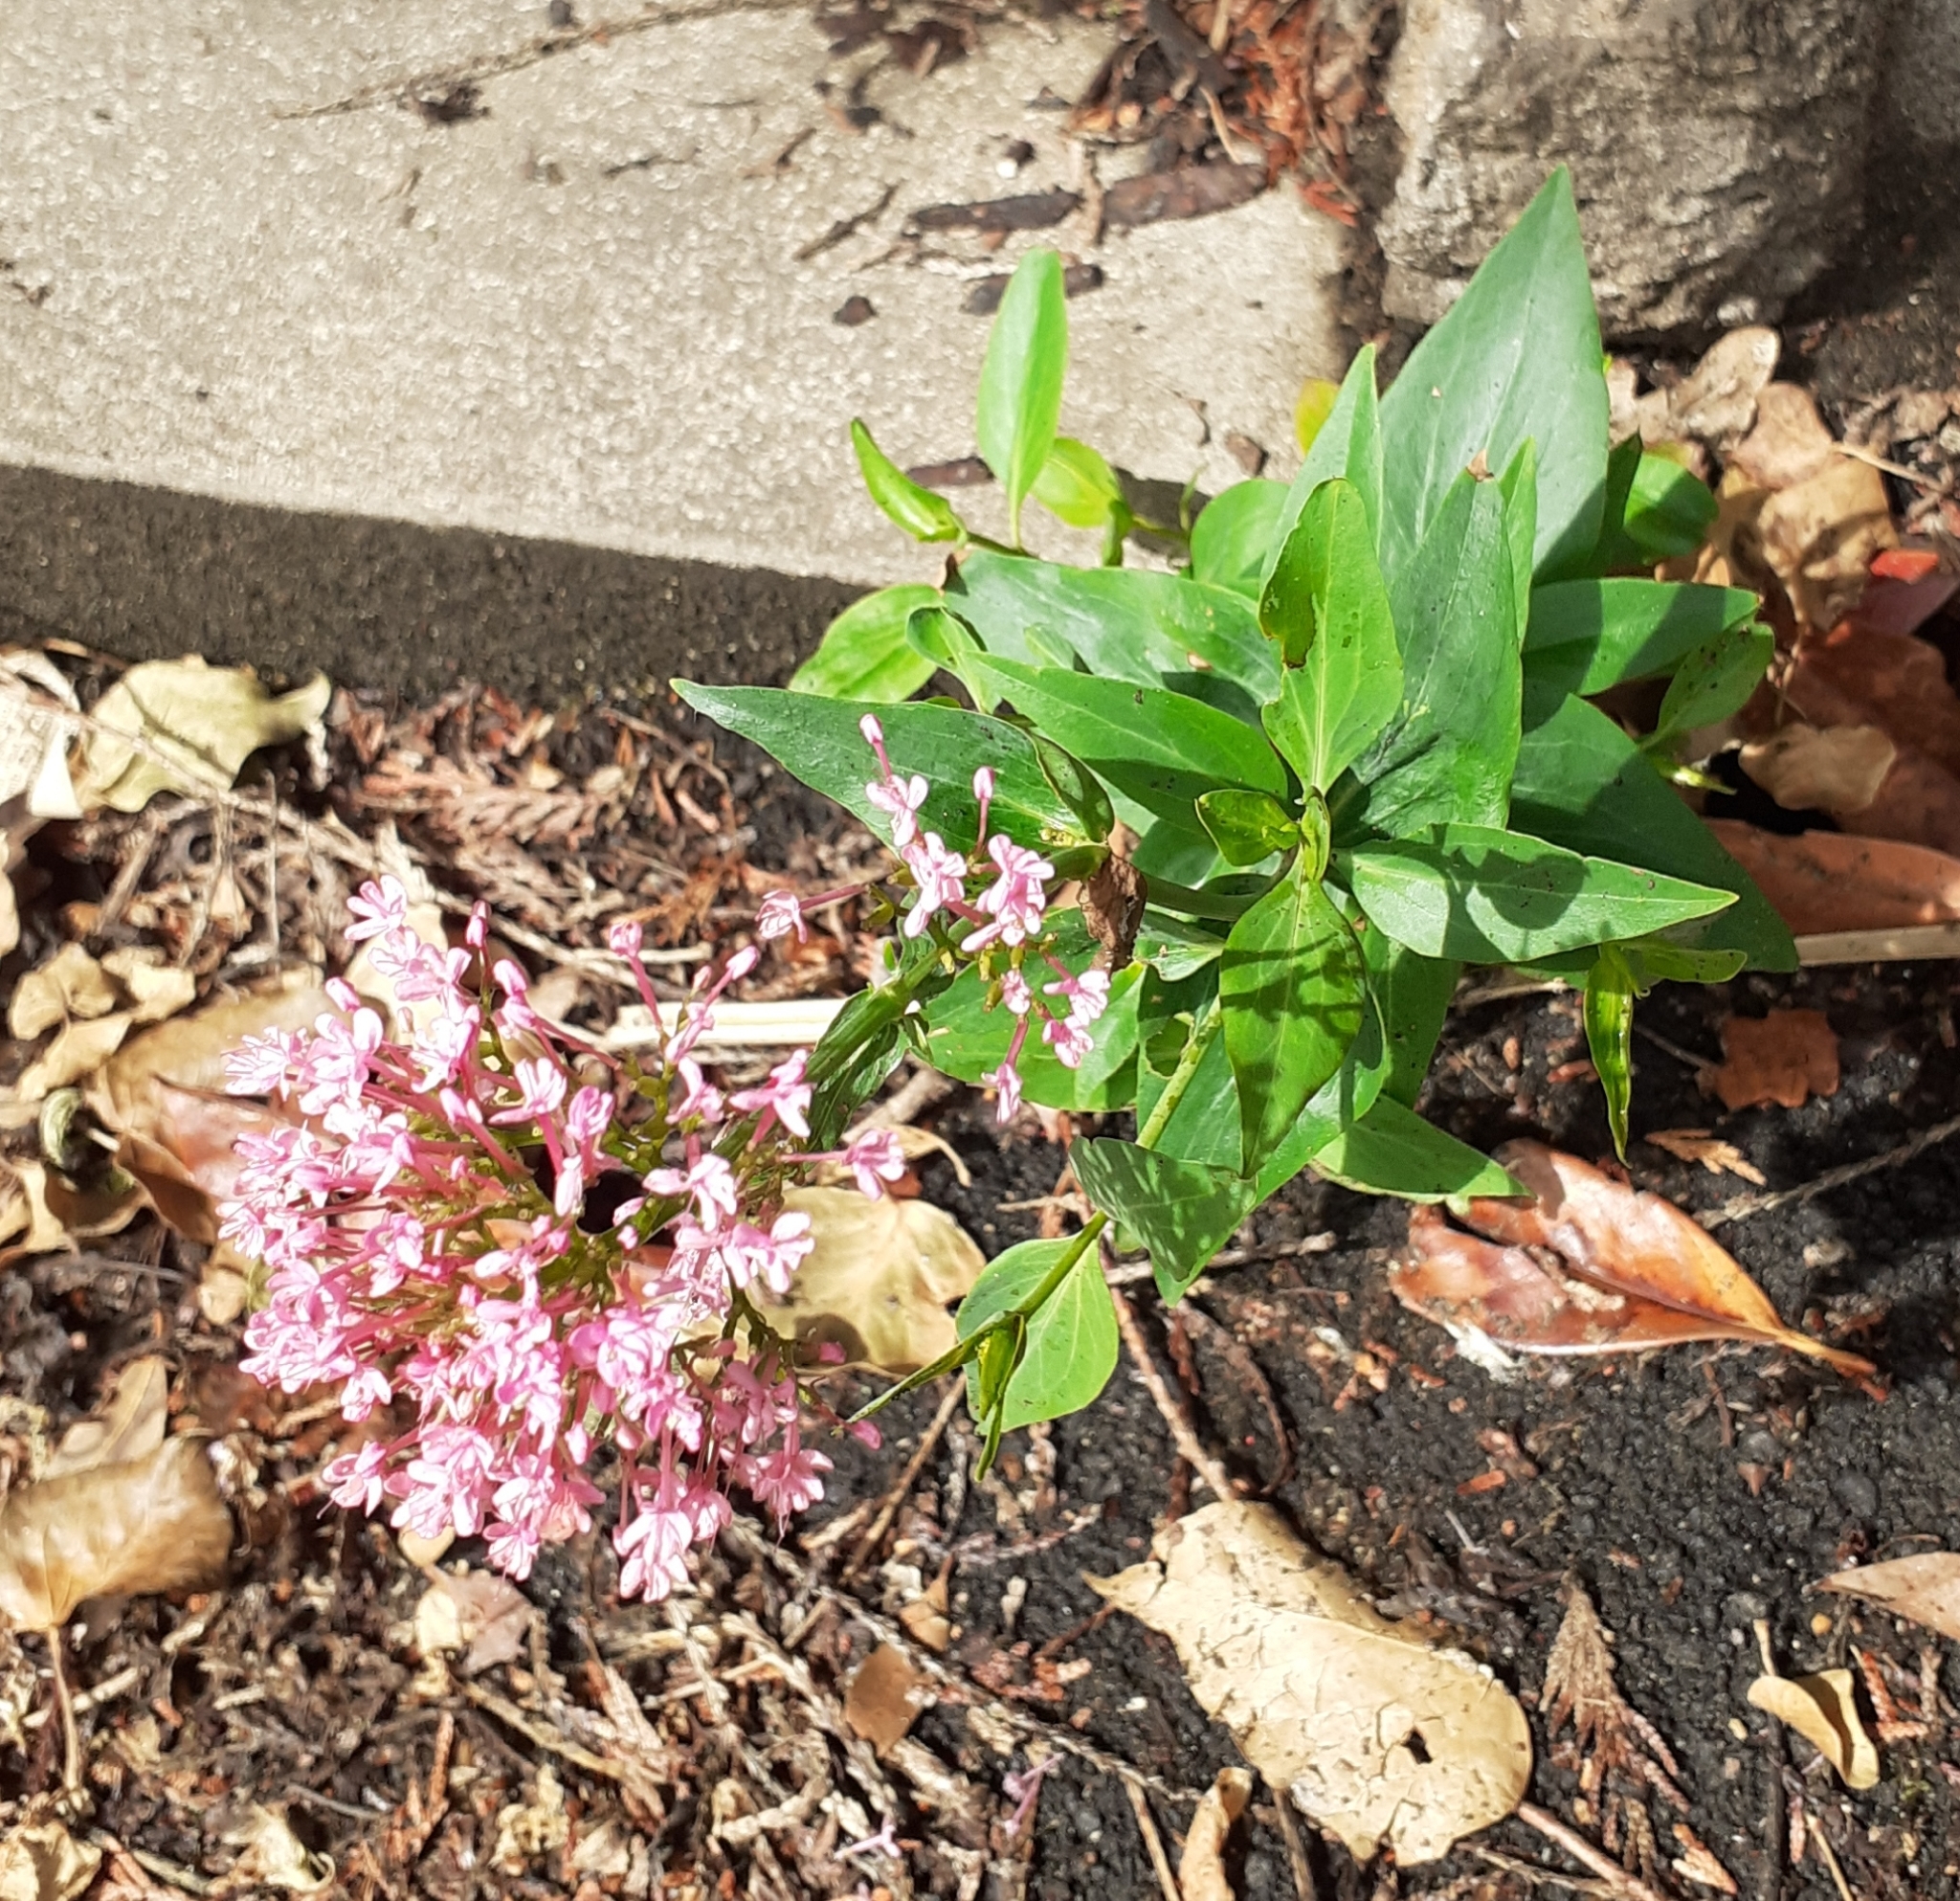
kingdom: Plantae
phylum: Tracheophyta
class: Magnoliopsida
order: Dipsacales
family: Caprifoliaceae
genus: Centranthus
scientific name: Centranthus ruber
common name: Red valerian
